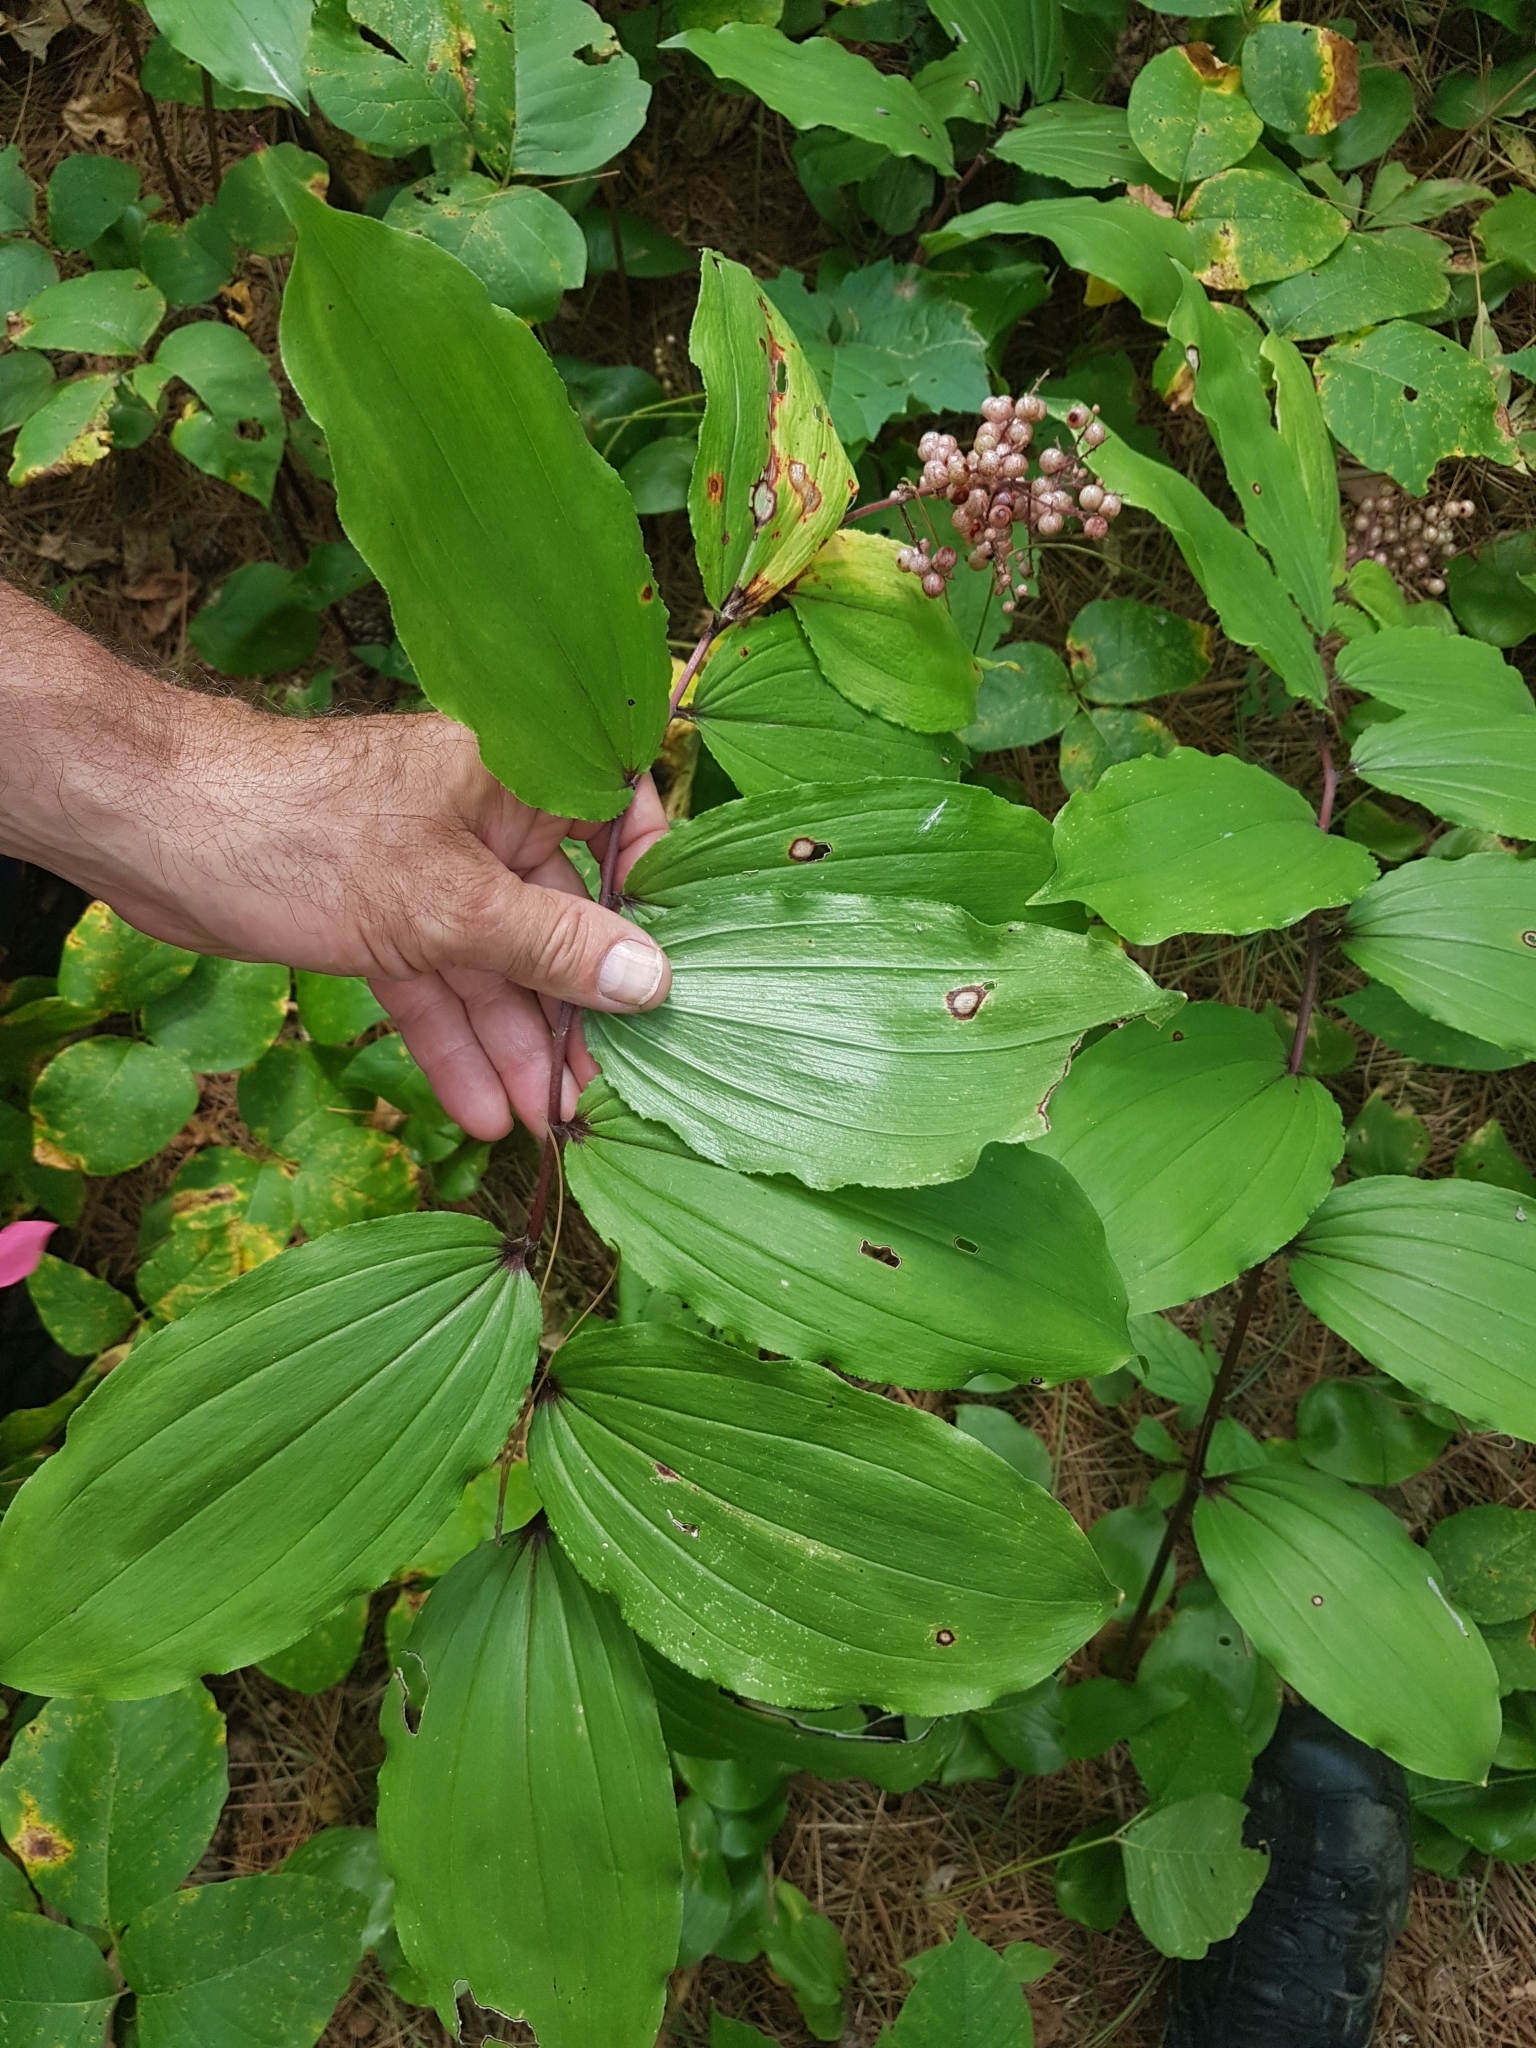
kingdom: Plantae
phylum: Tracheophyta
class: Liliopsida
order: Asparagales
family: Asparagaceae
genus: Maianthemum
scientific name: Maianthemum racemosum
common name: False spikenard
